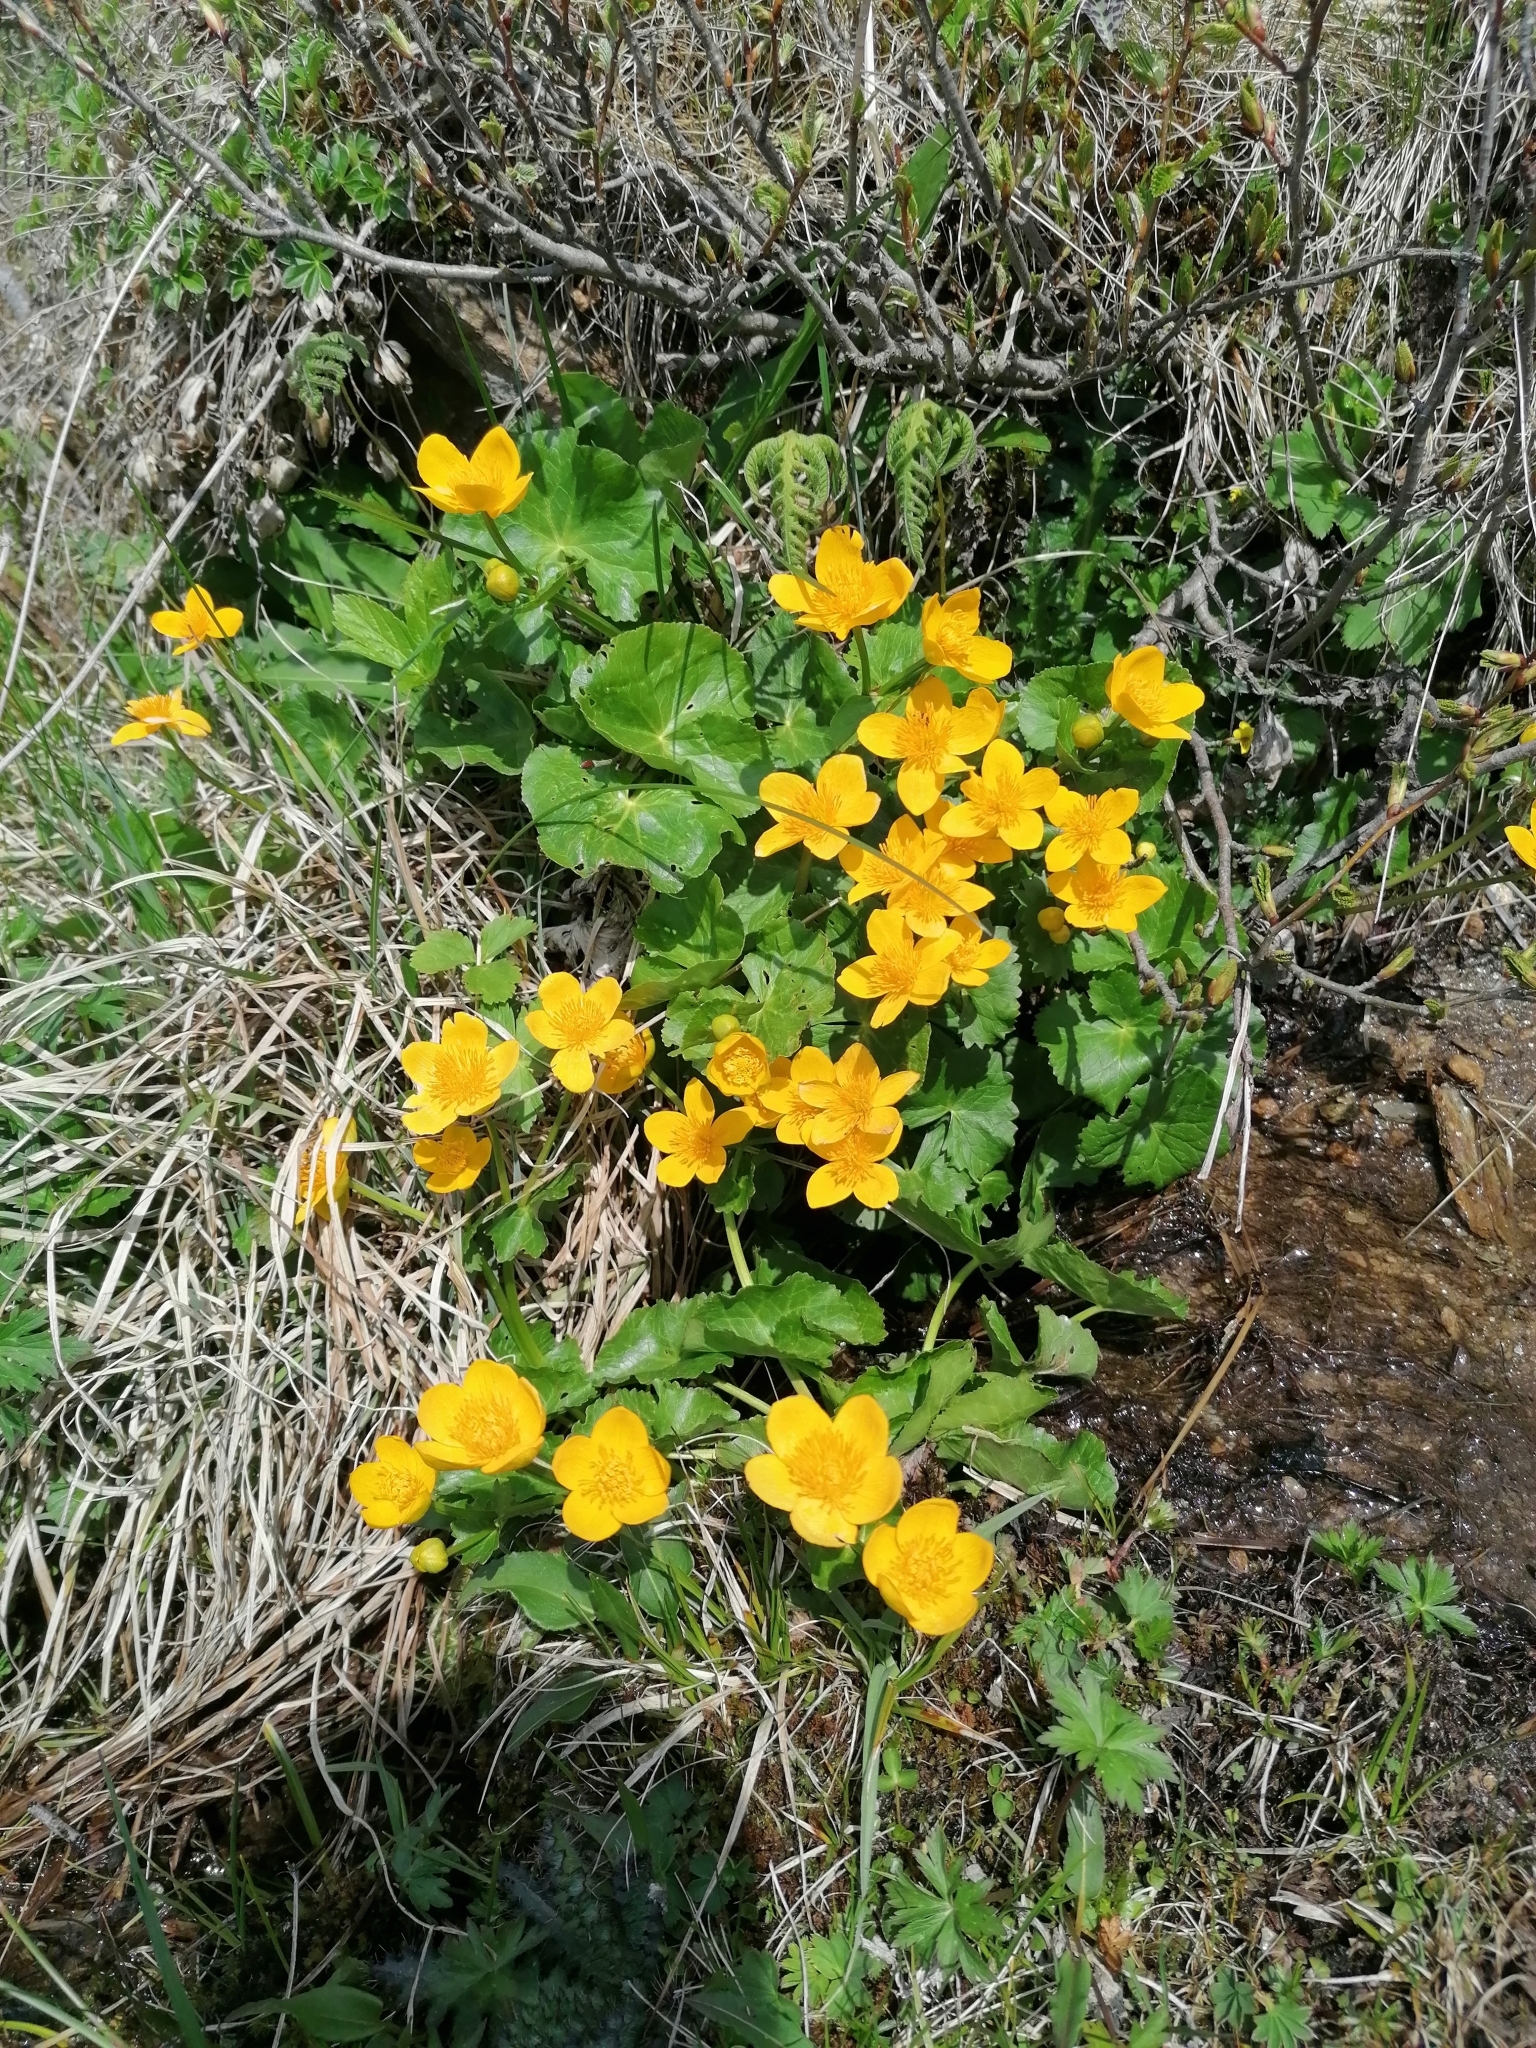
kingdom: Plantae
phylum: Tracheophyta
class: Magnoliopsida
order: Ranunculales
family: Ranunculaceae
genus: Caltha
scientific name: Caltha palustris
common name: Marsh marigold
